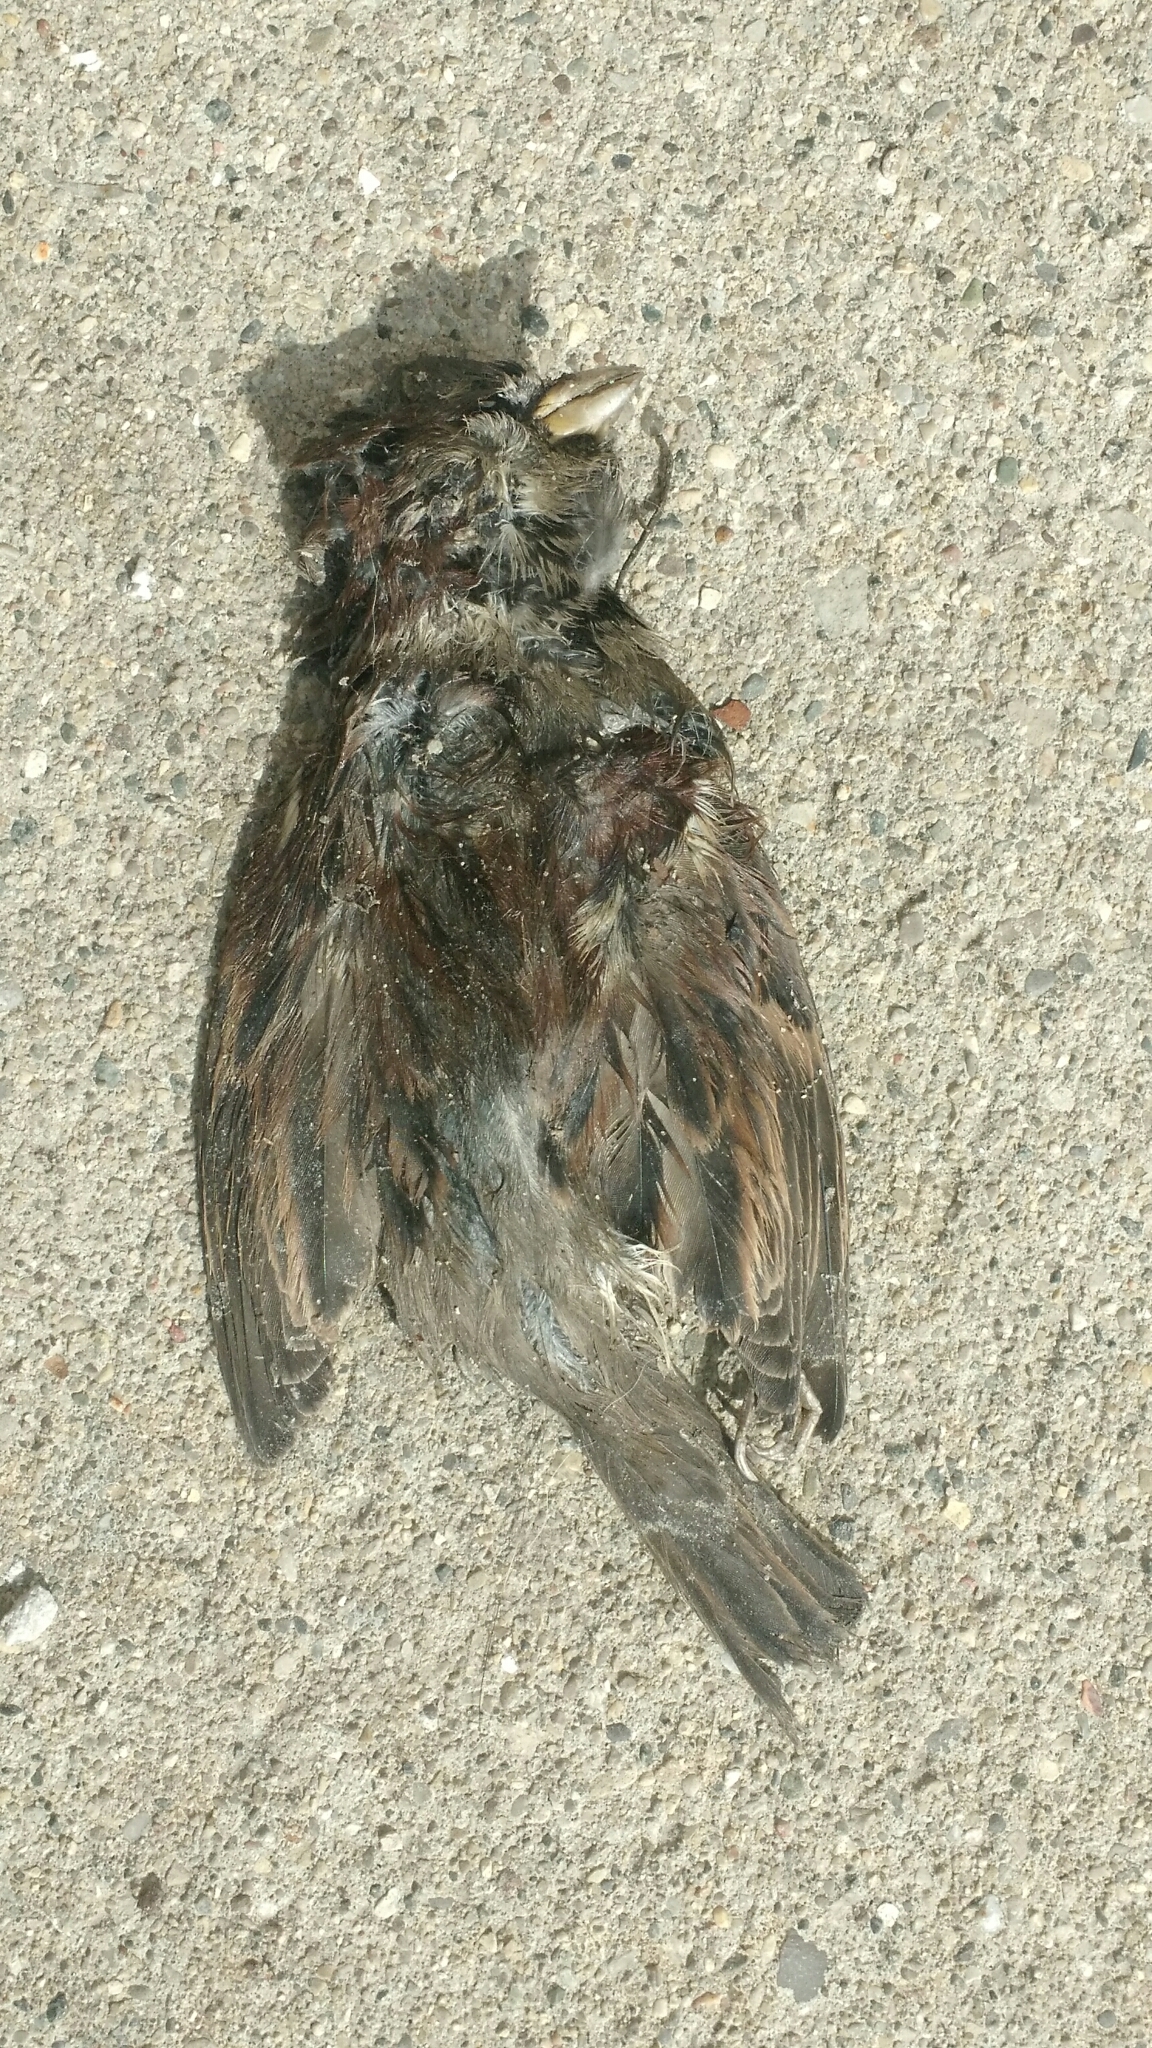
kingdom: Animalia
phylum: Chordata
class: Aves
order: Passeriformes
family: Passeridae
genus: Passer
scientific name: Passer domesticus
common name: House sparrow
